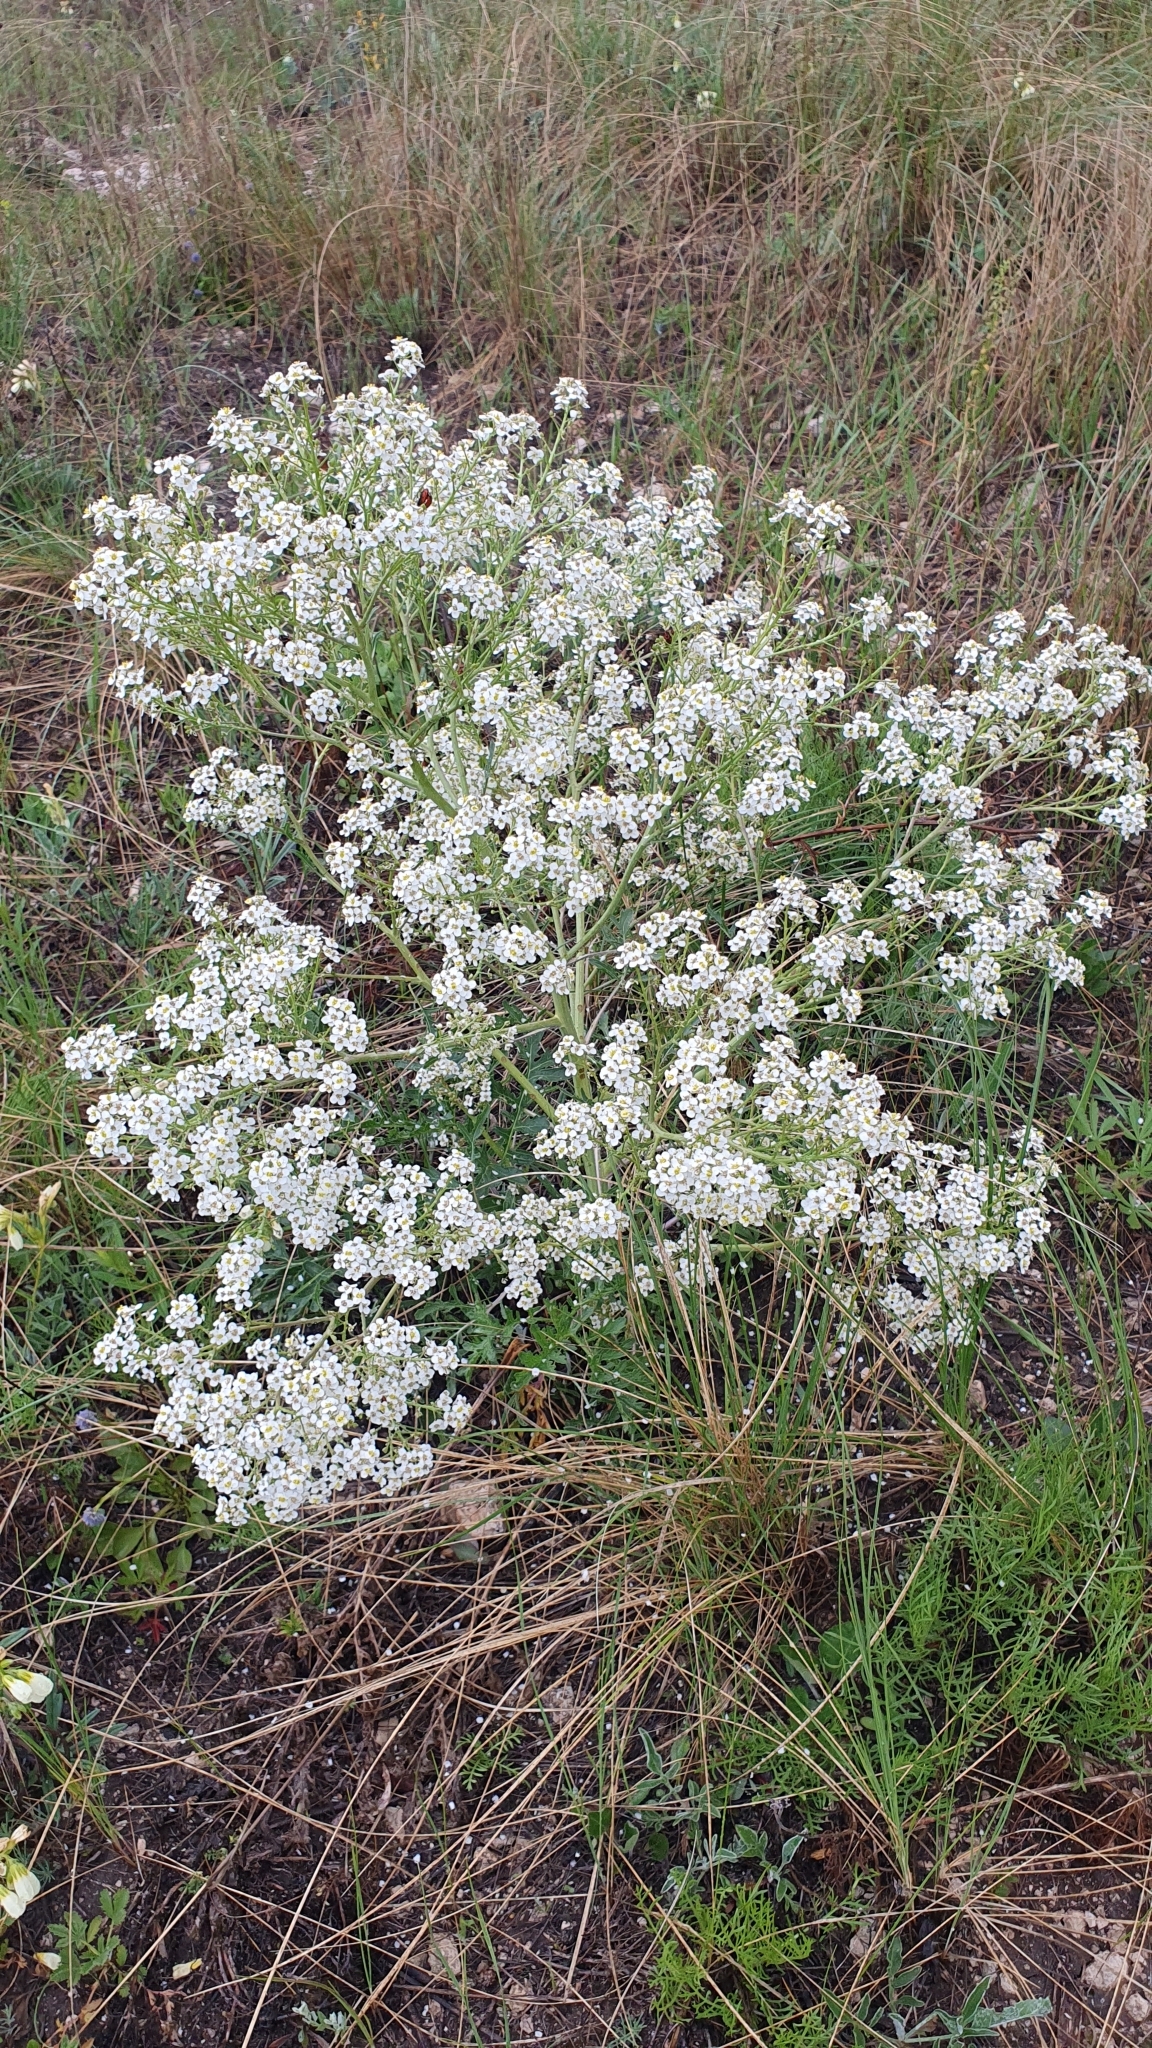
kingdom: Plantae
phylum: Tracheophyta
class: Magnoliopsida
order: Brassicales
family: Brassicaceae
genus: Crambe
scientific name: Crambe tataria
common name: Tartarian breadplant
